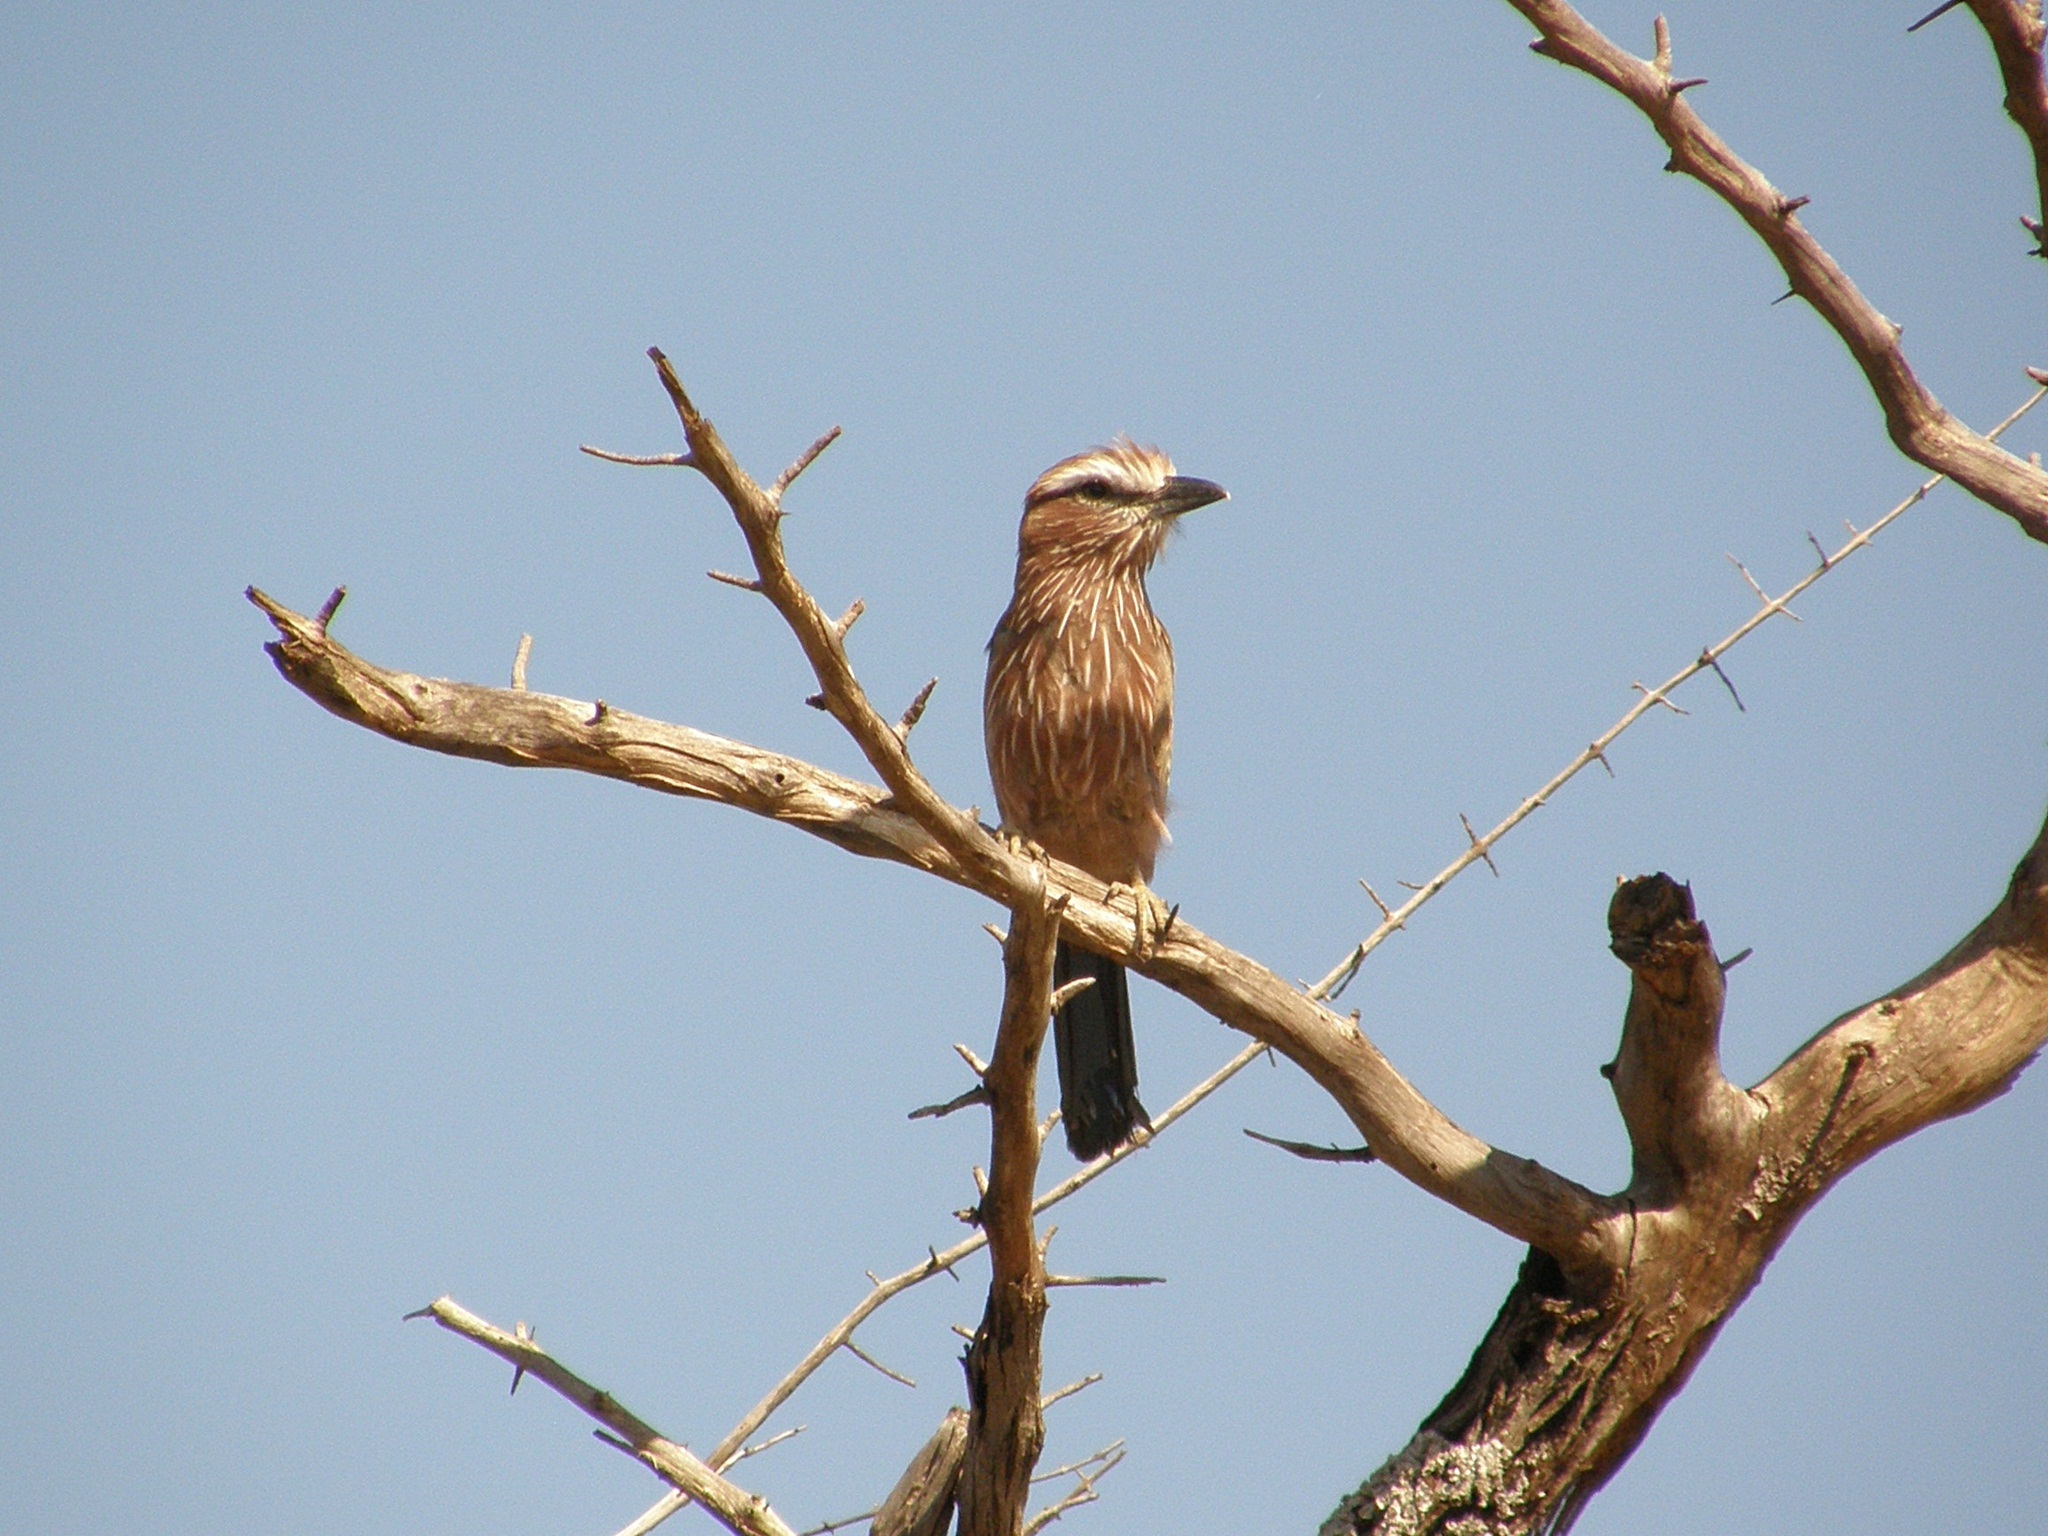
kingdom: Animalia
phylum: Chordata
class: Aves
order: Coraciiformes
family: Coraciidae
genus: Coracias
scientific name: Coracias naevius
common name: Purple roller
